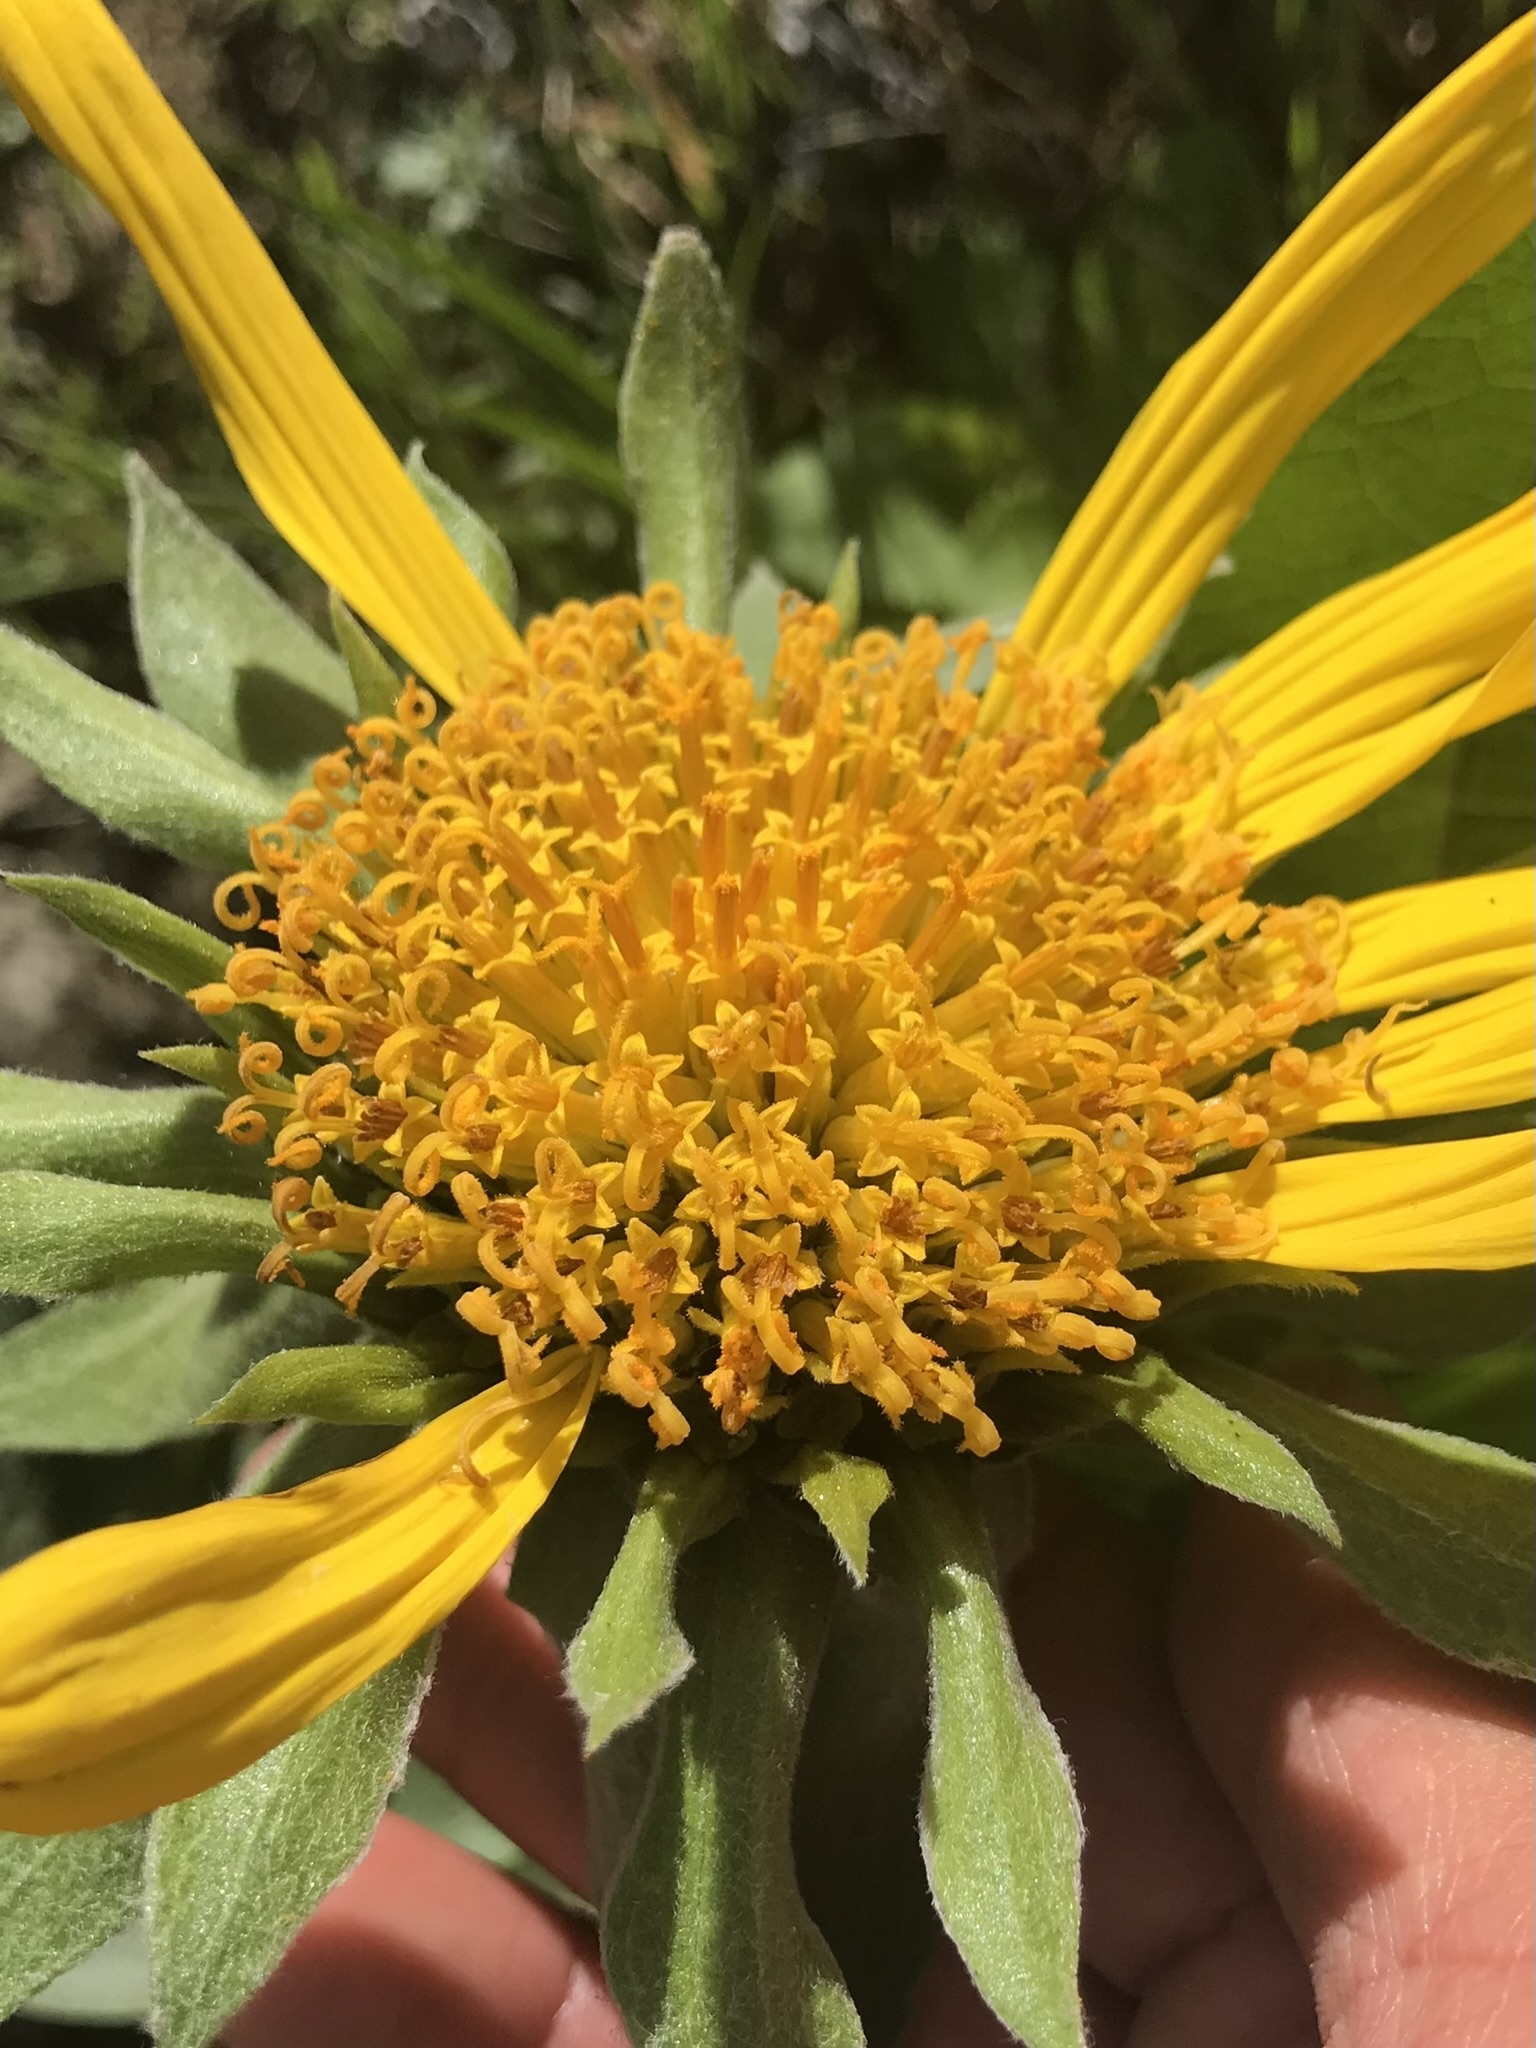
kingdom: Plantae
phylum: Tracheophyta
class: Magnoliopsida
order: Asterales
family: Asteraceae
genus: Wyethia
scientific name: Wyethia glabra
